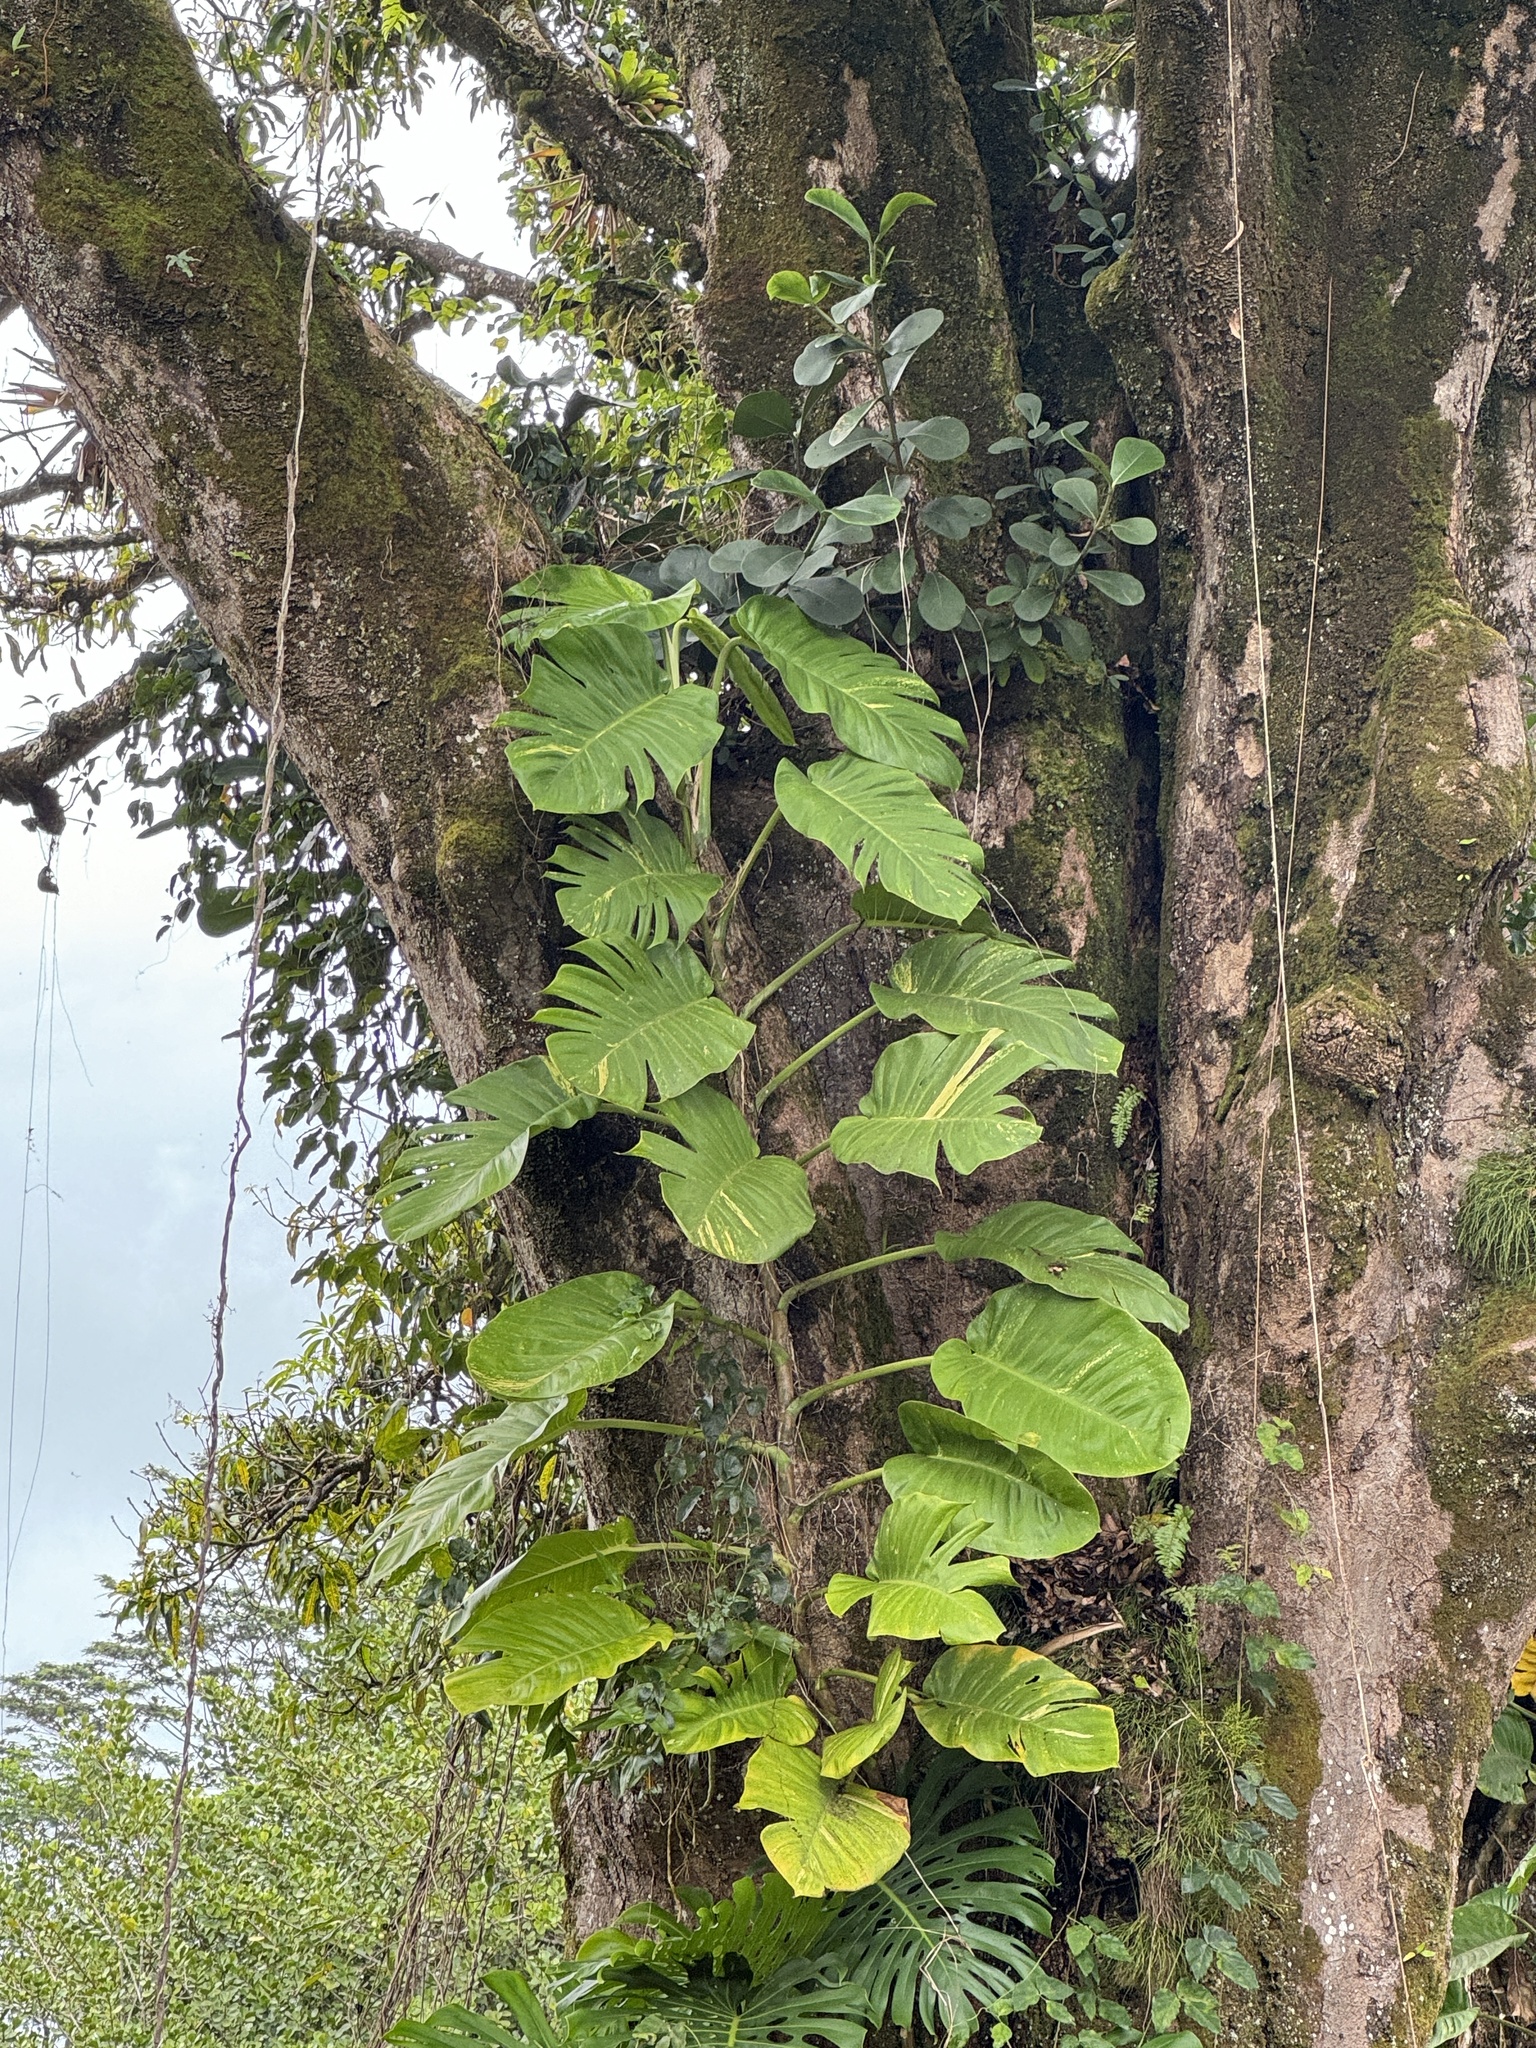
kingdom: Plantae
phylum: Tracheophyta
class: Liliopsida
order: Alismatales
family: Araceae
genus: Epipremnum
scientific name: Epipremnum aureum
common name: Golden hunter's-robe
